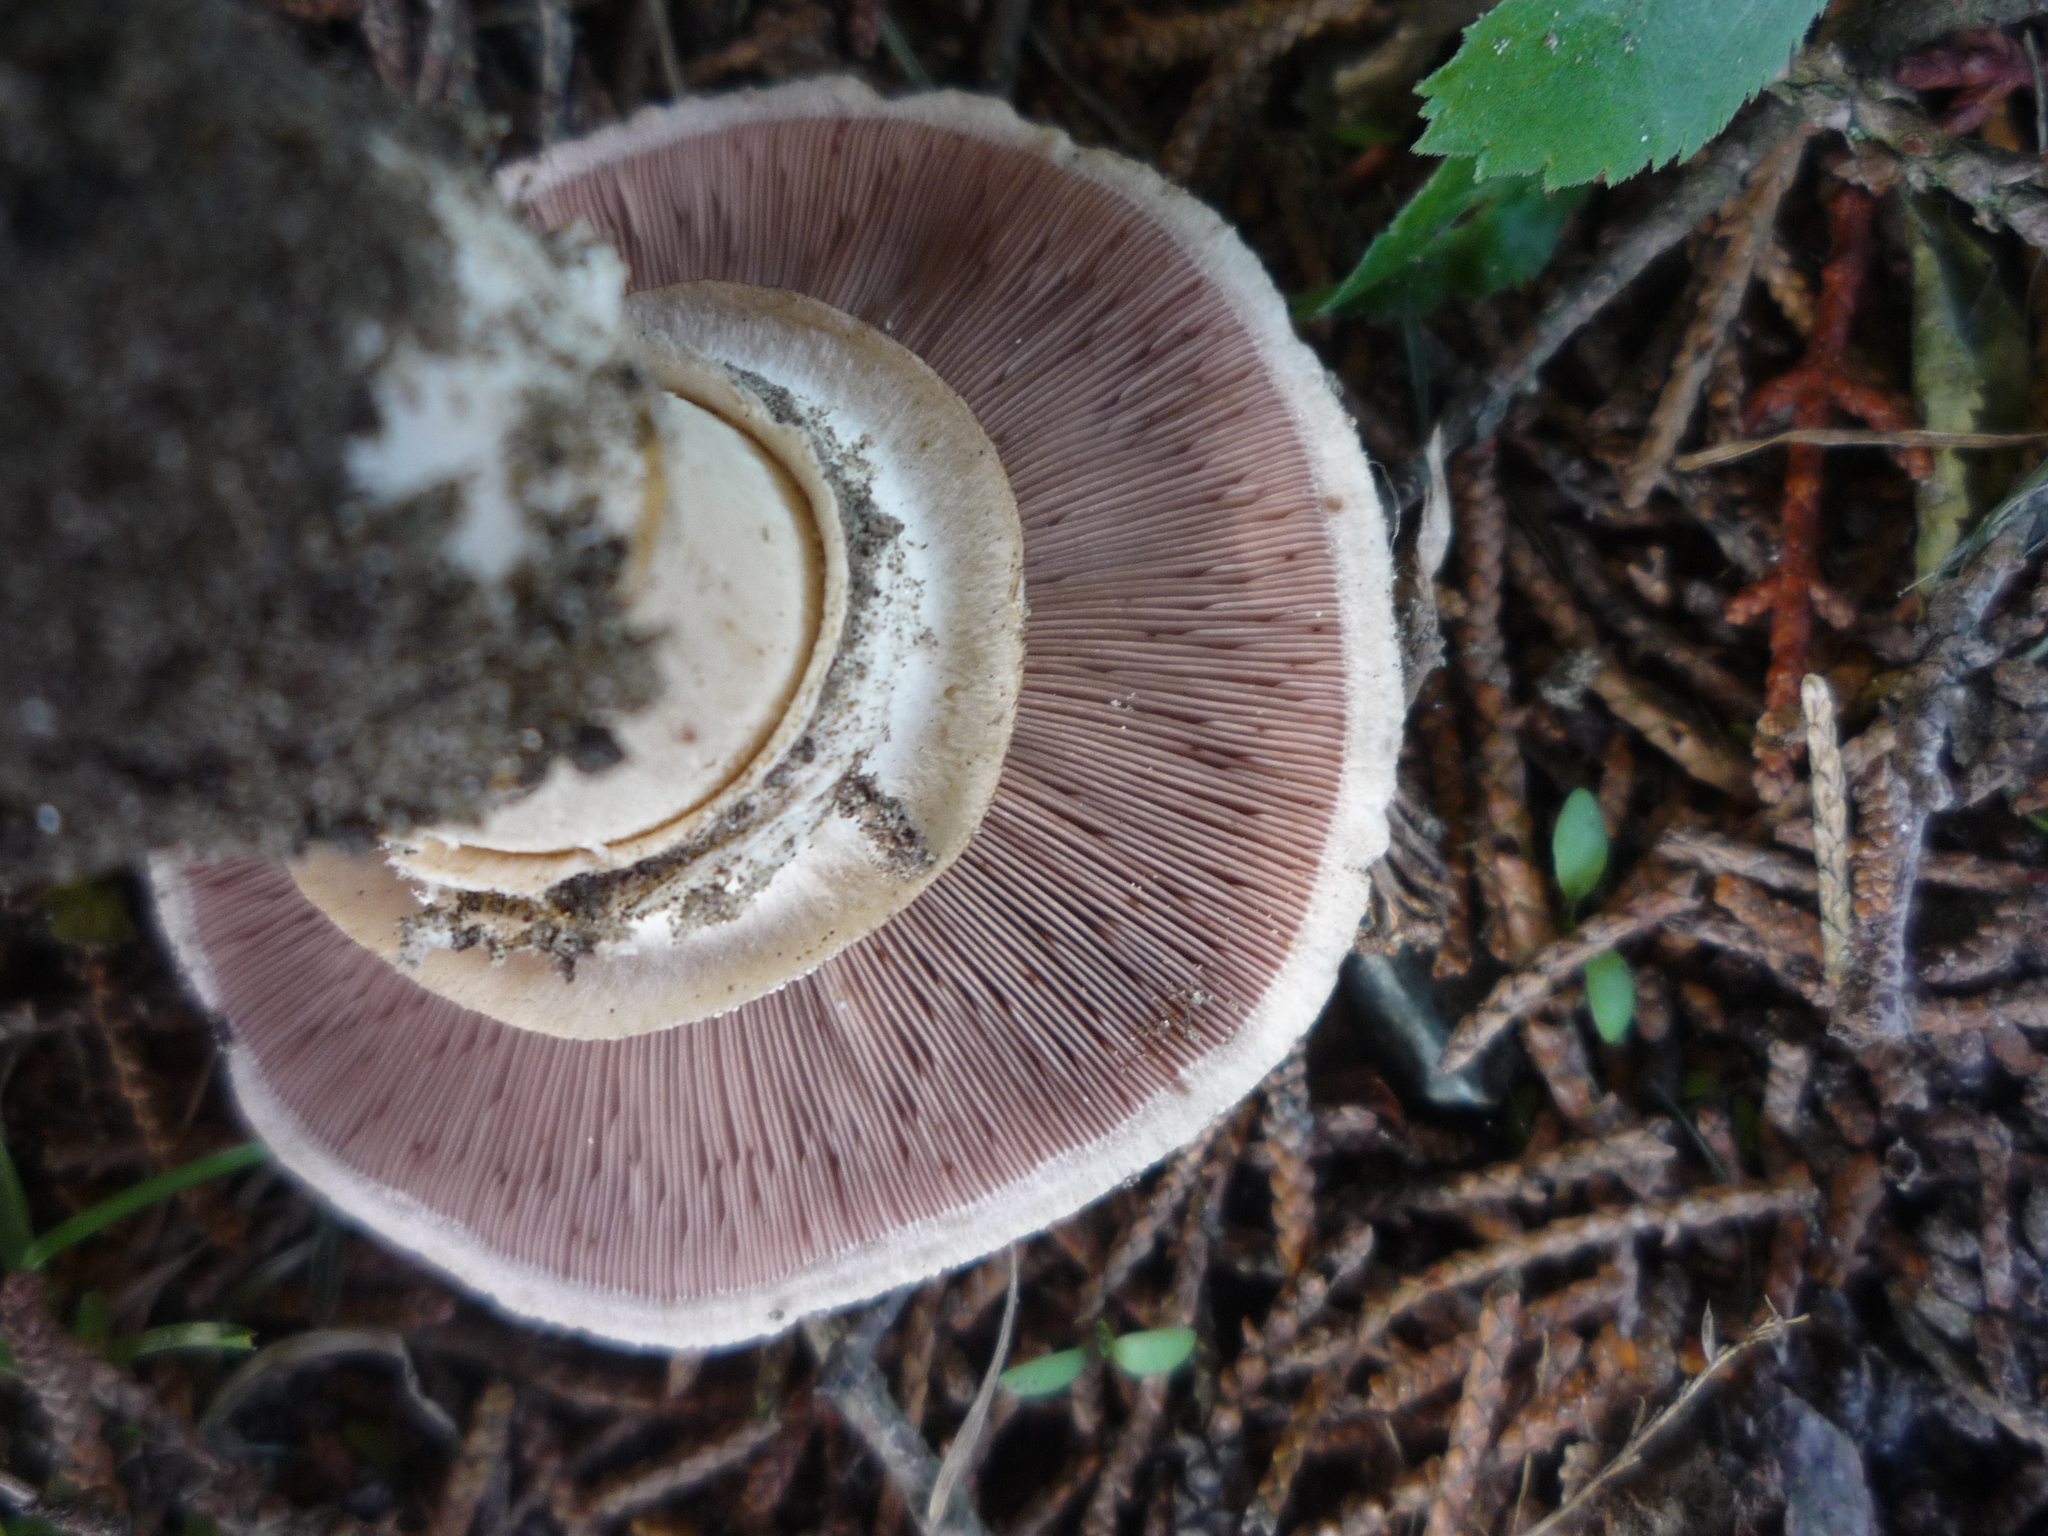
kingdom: Fungi
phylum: Basidiomycota
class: Agaricomycetes
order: Agaricales
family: Agaricaceae
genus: Agaricus
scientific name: Agaricus bitorquis
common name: Pavement mushroom
